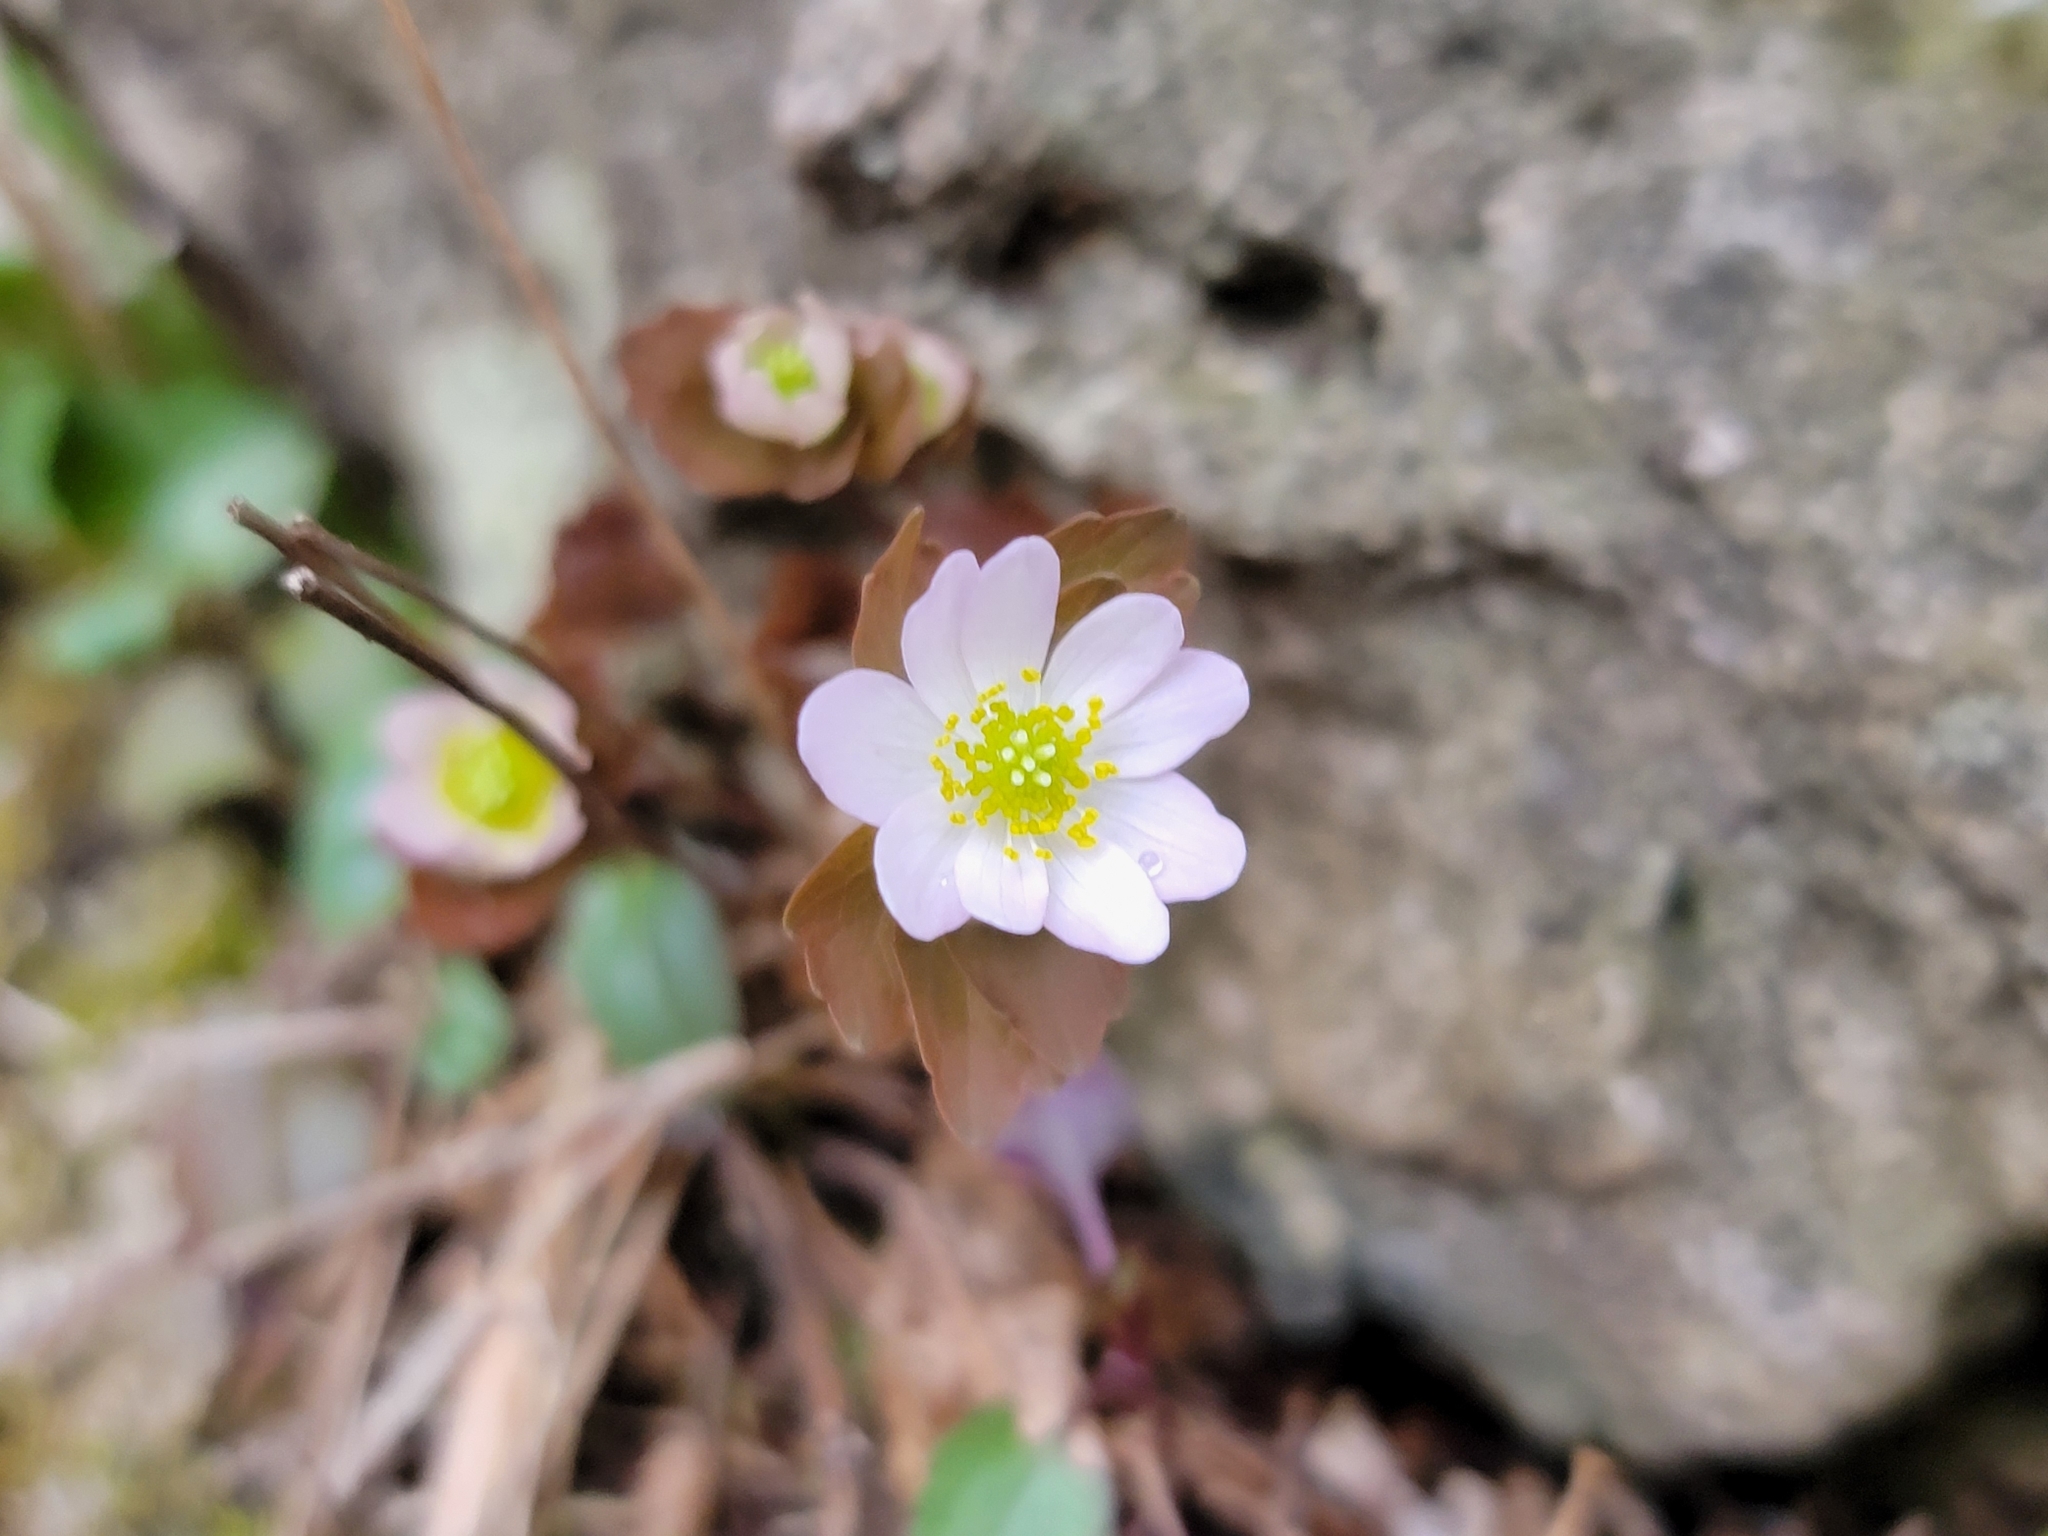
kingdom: Plantae
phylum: Tracheophyta
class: Magnoliopsida
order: Ranunculales
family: Ranunculaceae
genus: Thalictrum
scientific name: Thalictrum thalictroides
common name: Rue-anemone
